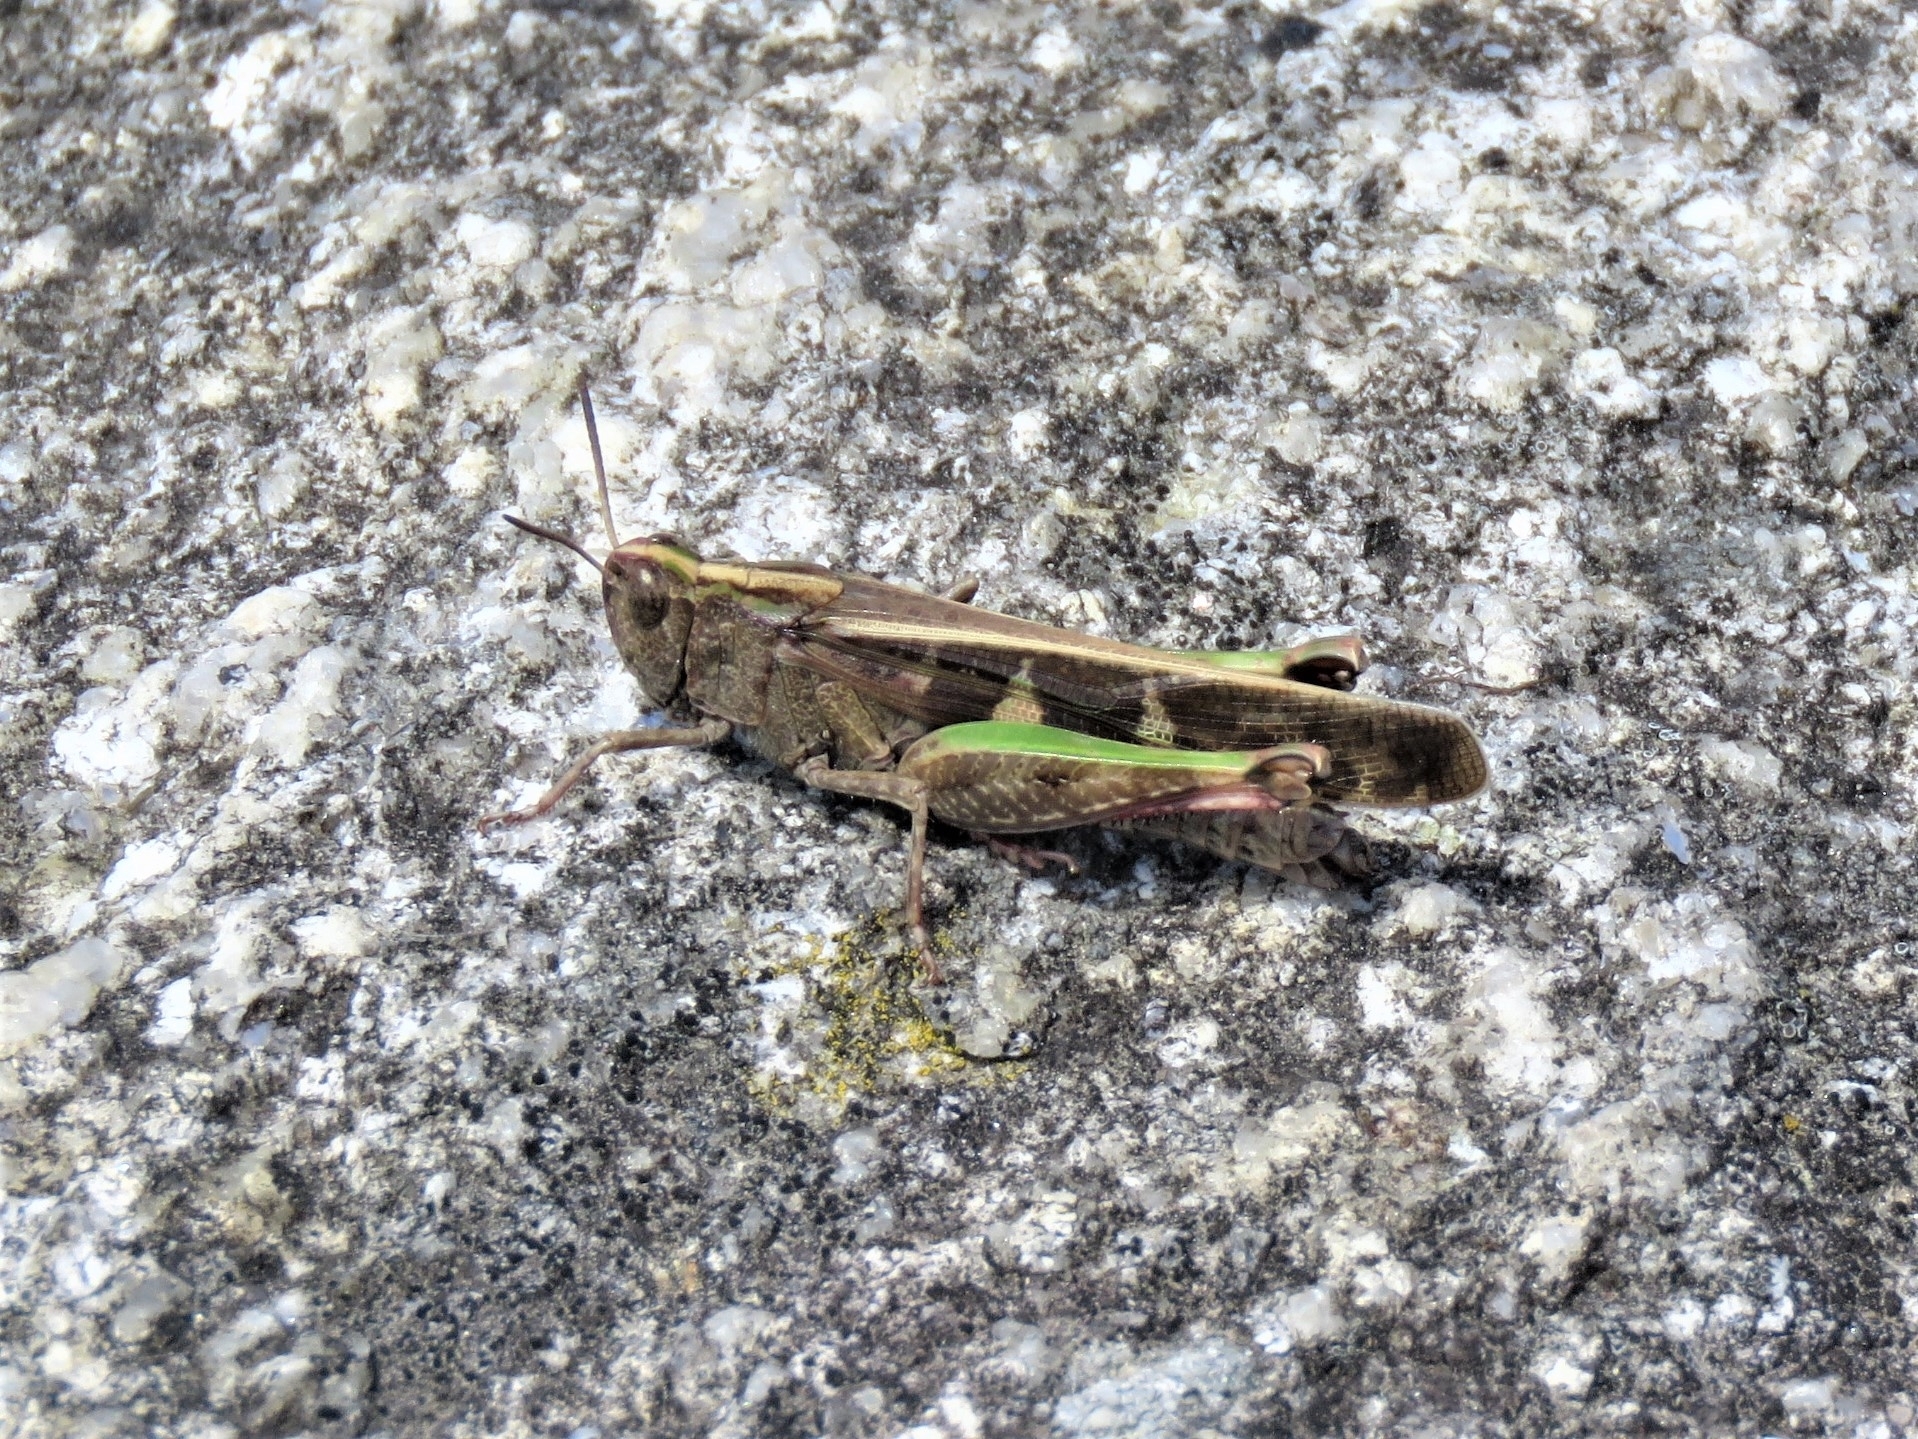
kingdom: Animalia
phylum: Arthropoda
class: Insecta
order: Orthoptera
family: Acrididae
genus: Aiolopus
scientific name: Aiolopus strepens
